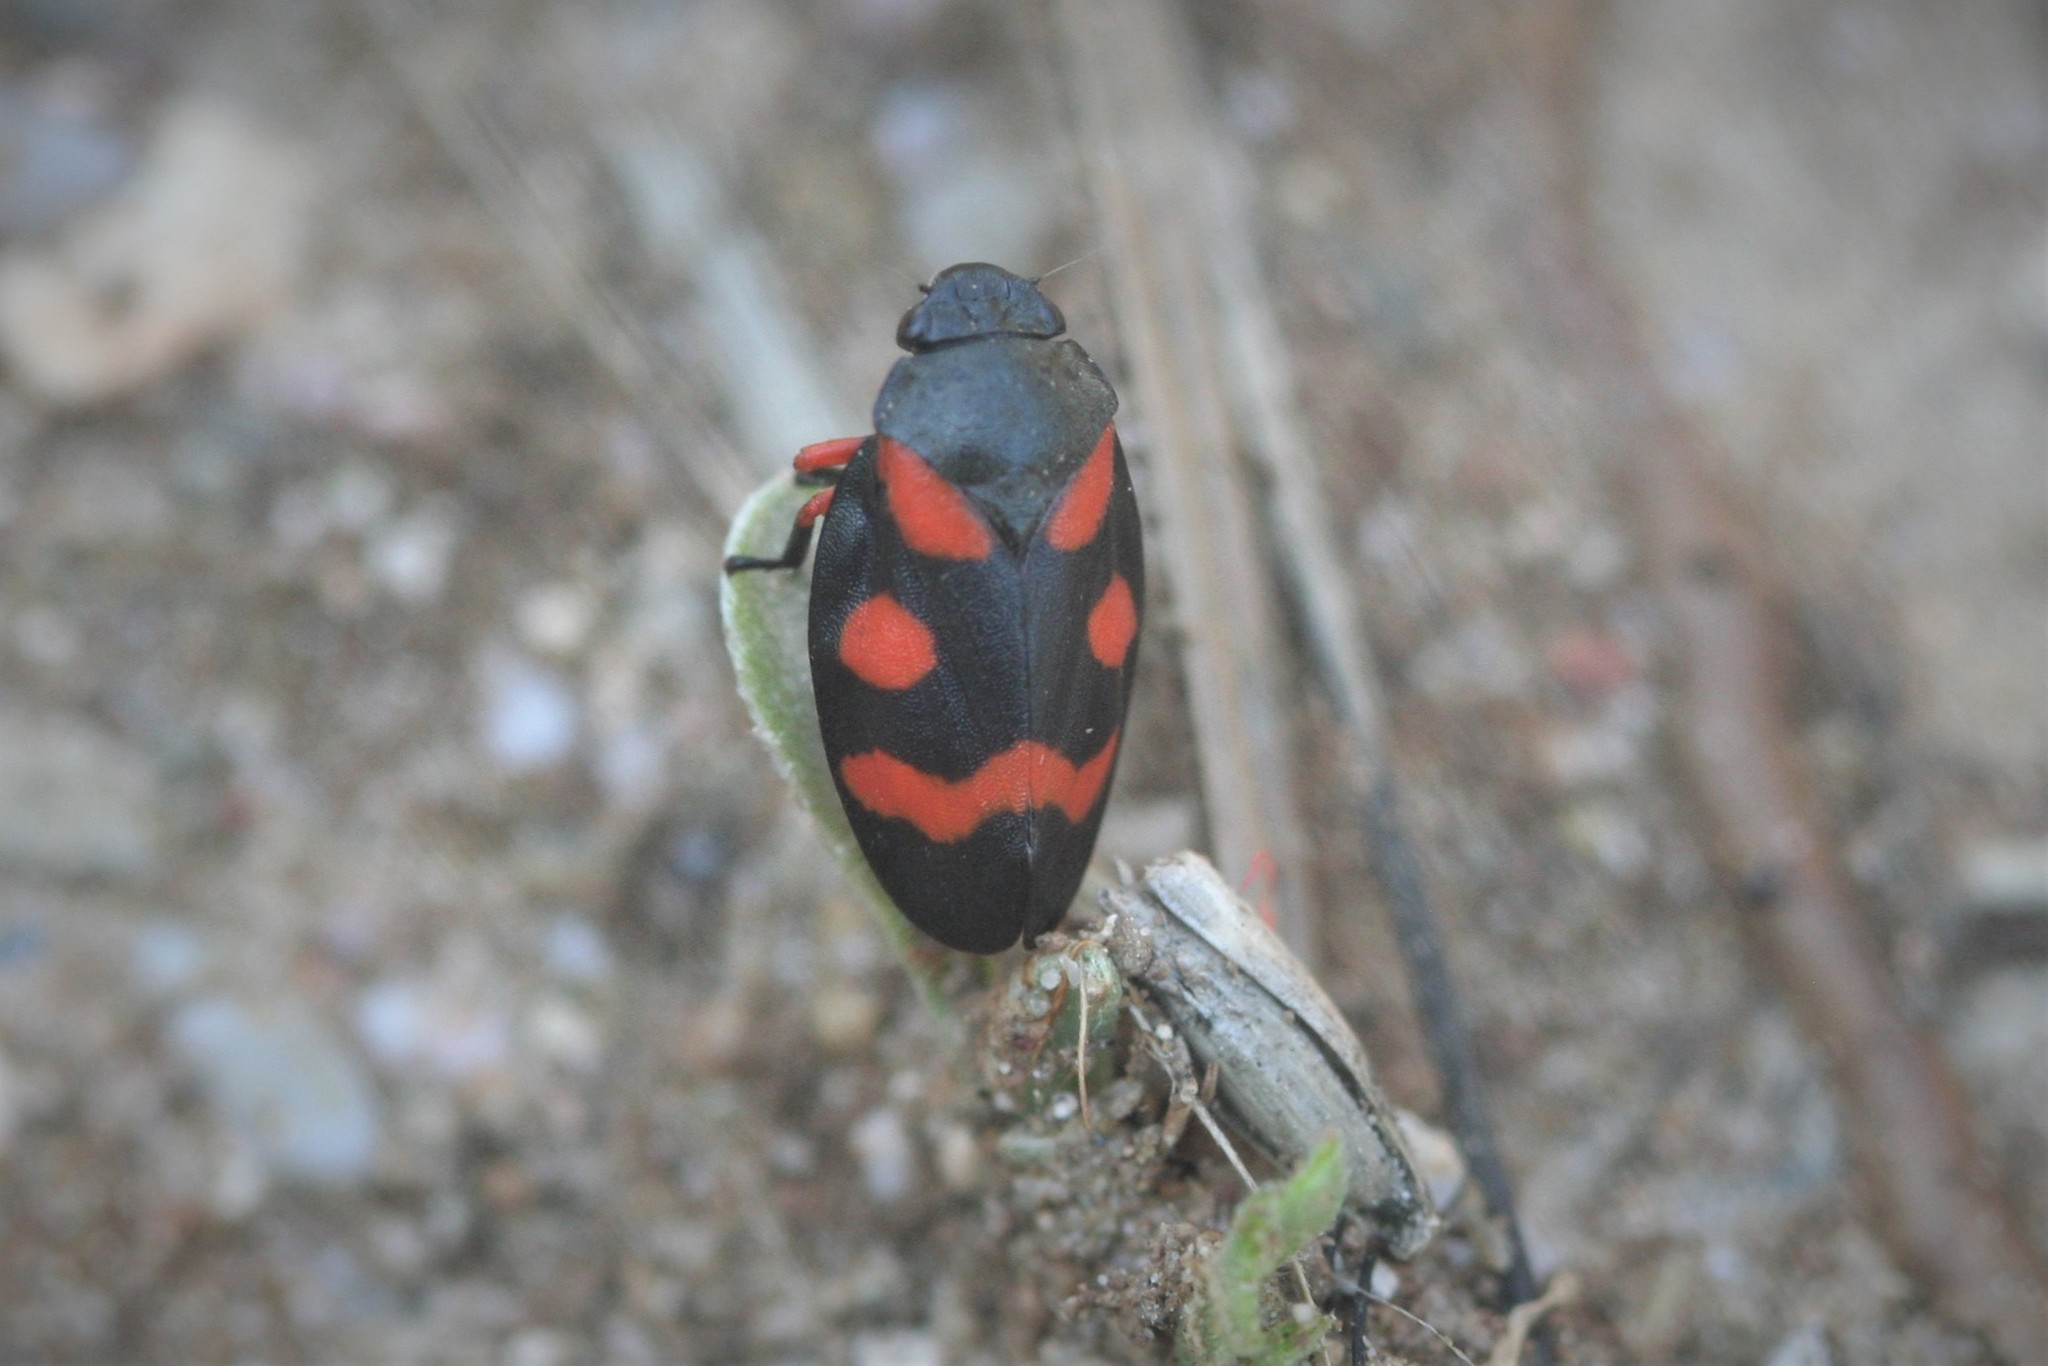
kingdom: Animalia
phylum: Arthropoda
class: Insecta
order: Hemiptera
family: Cercopidae
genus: Cercopis
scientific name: Cercopis intermedia
